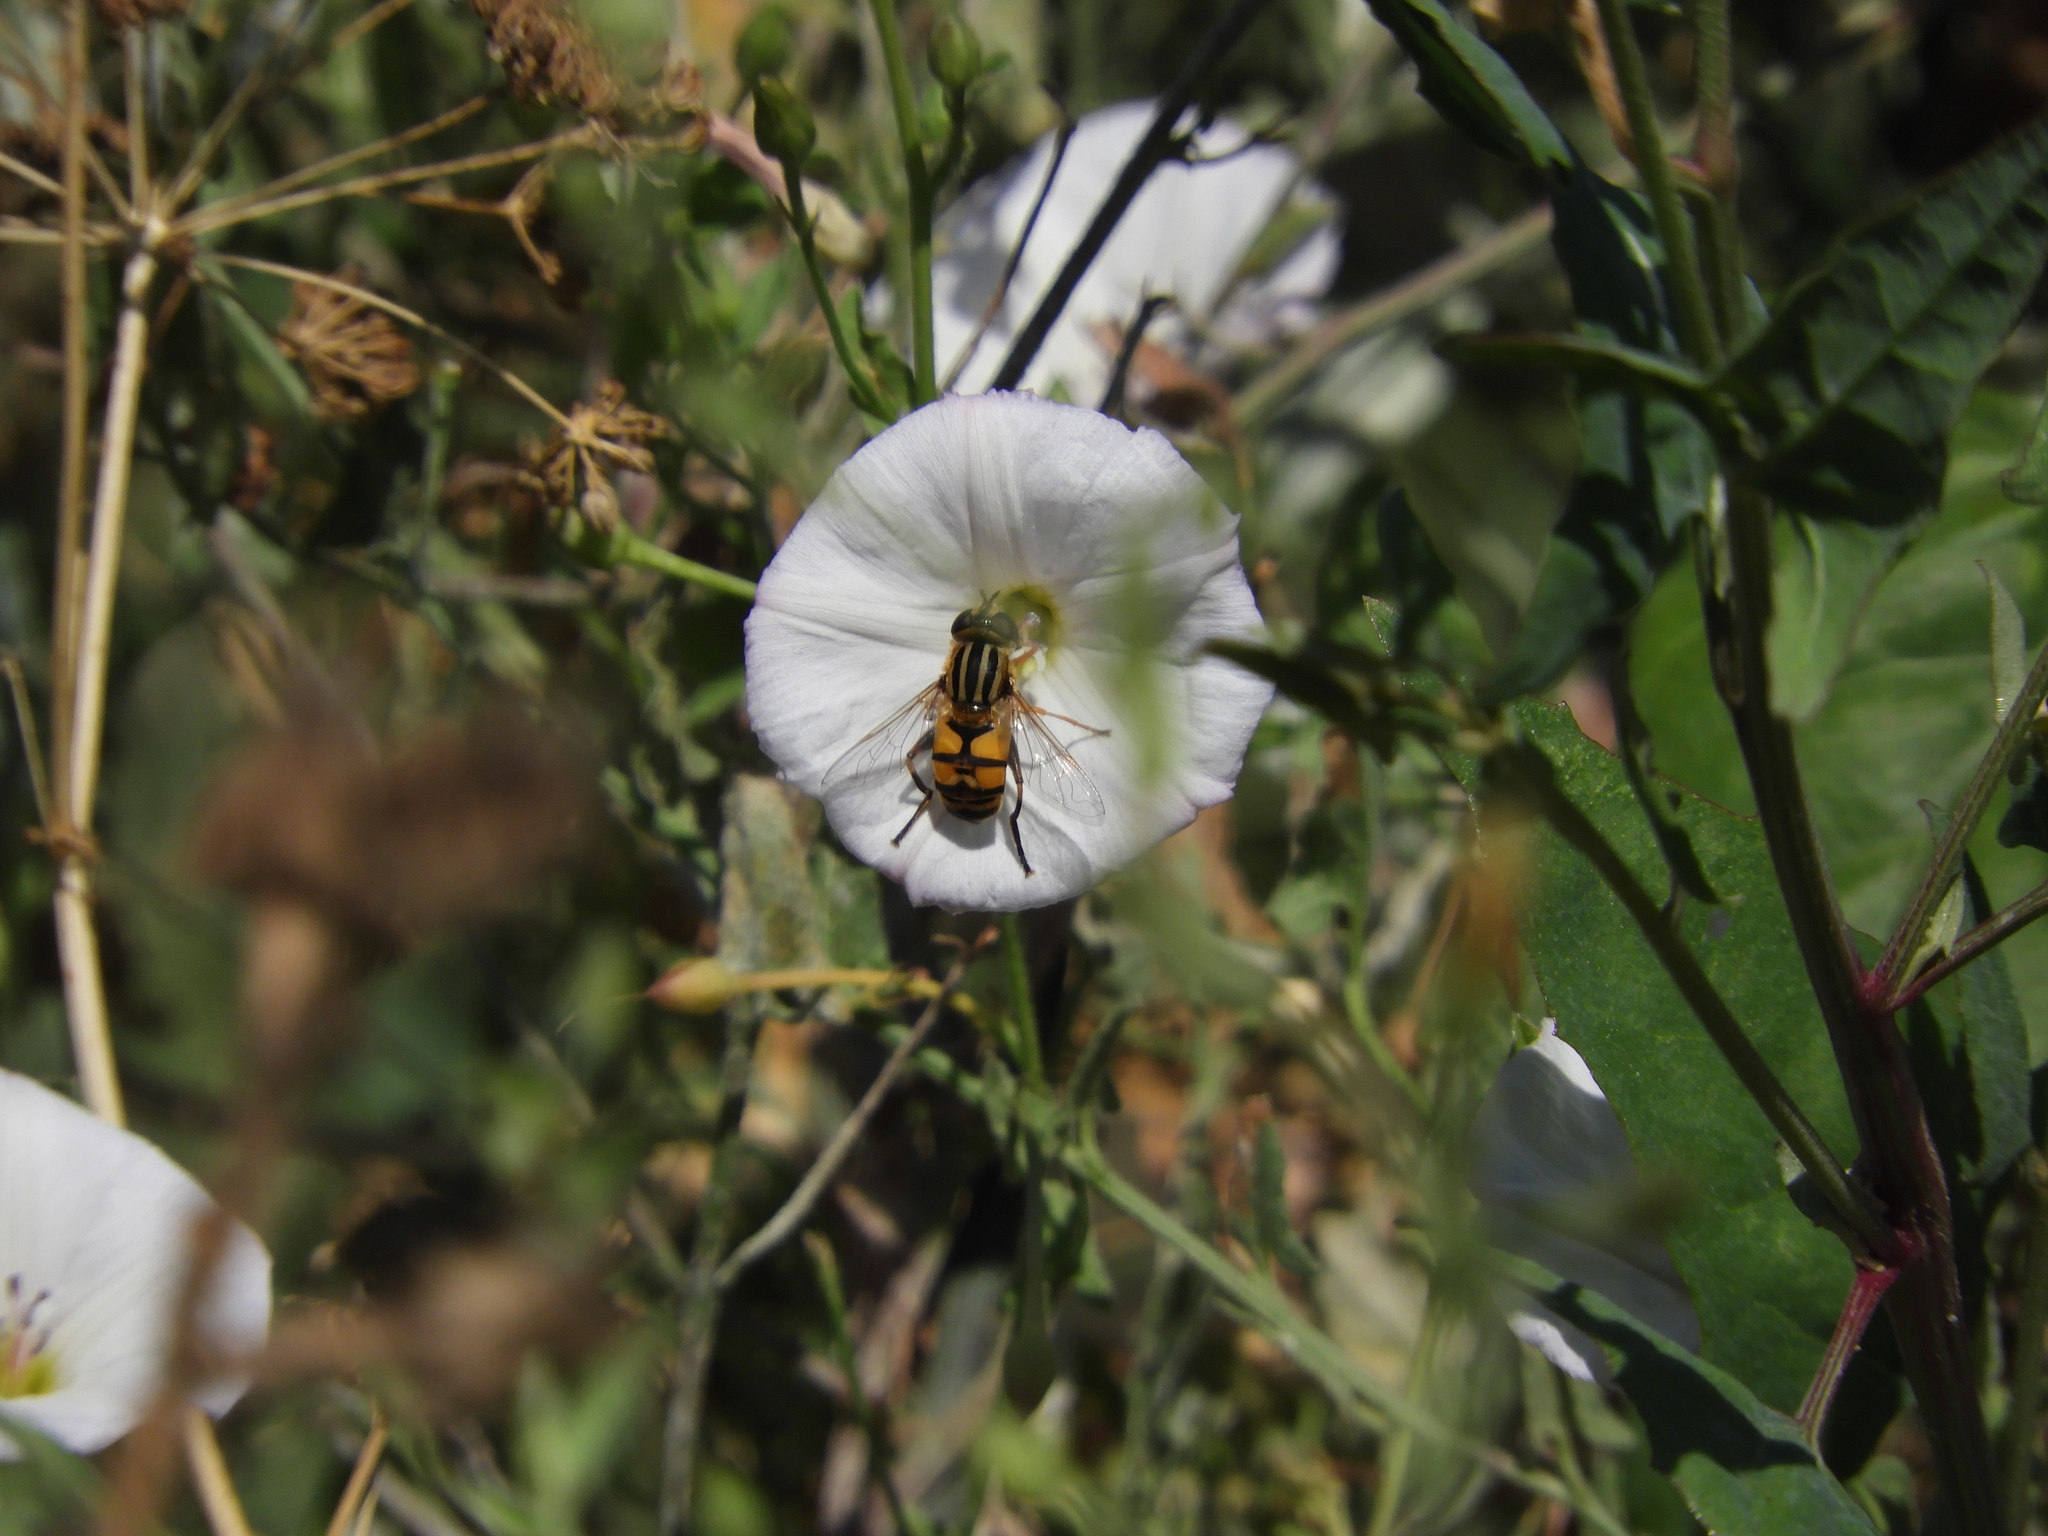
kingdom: Animalia
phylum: Arthropoda
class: Insecta
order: Diptera
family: Syrphidae
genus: Helophilus
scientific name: Helophilus latifrons
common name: Broad-headed marsh fly
